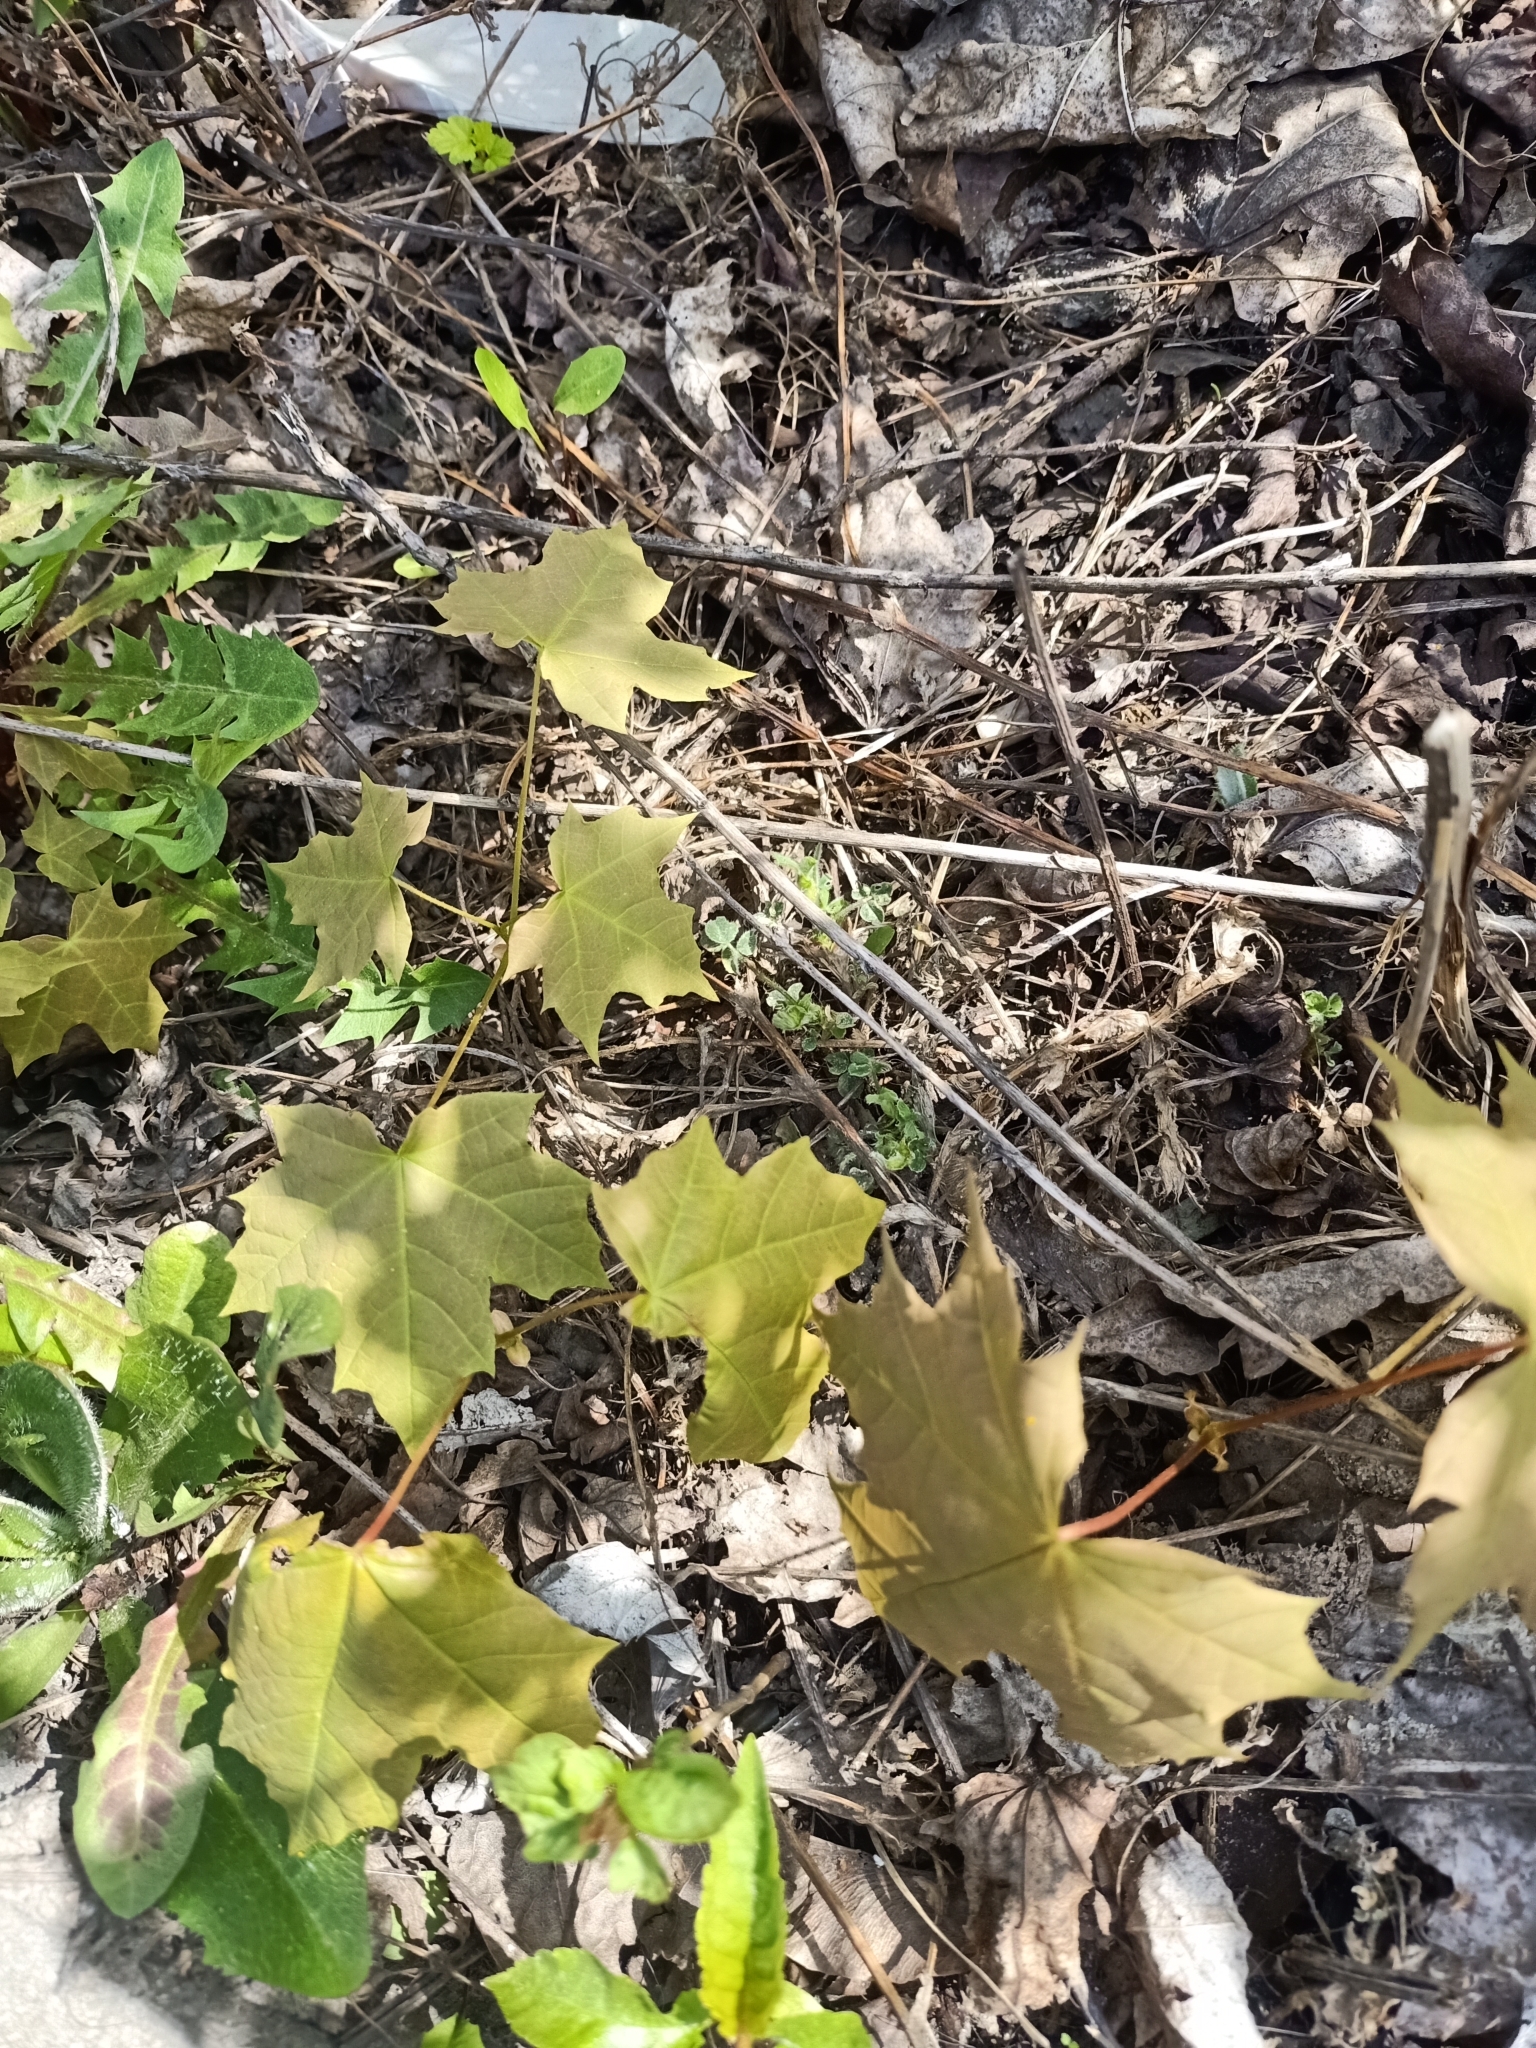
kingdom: Plantae
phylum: Tracheophyta
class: Magnoliopsida
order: Sapindales
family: Sapindaceae
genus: Acer
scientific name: Acer platanoides
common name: Norway maple
